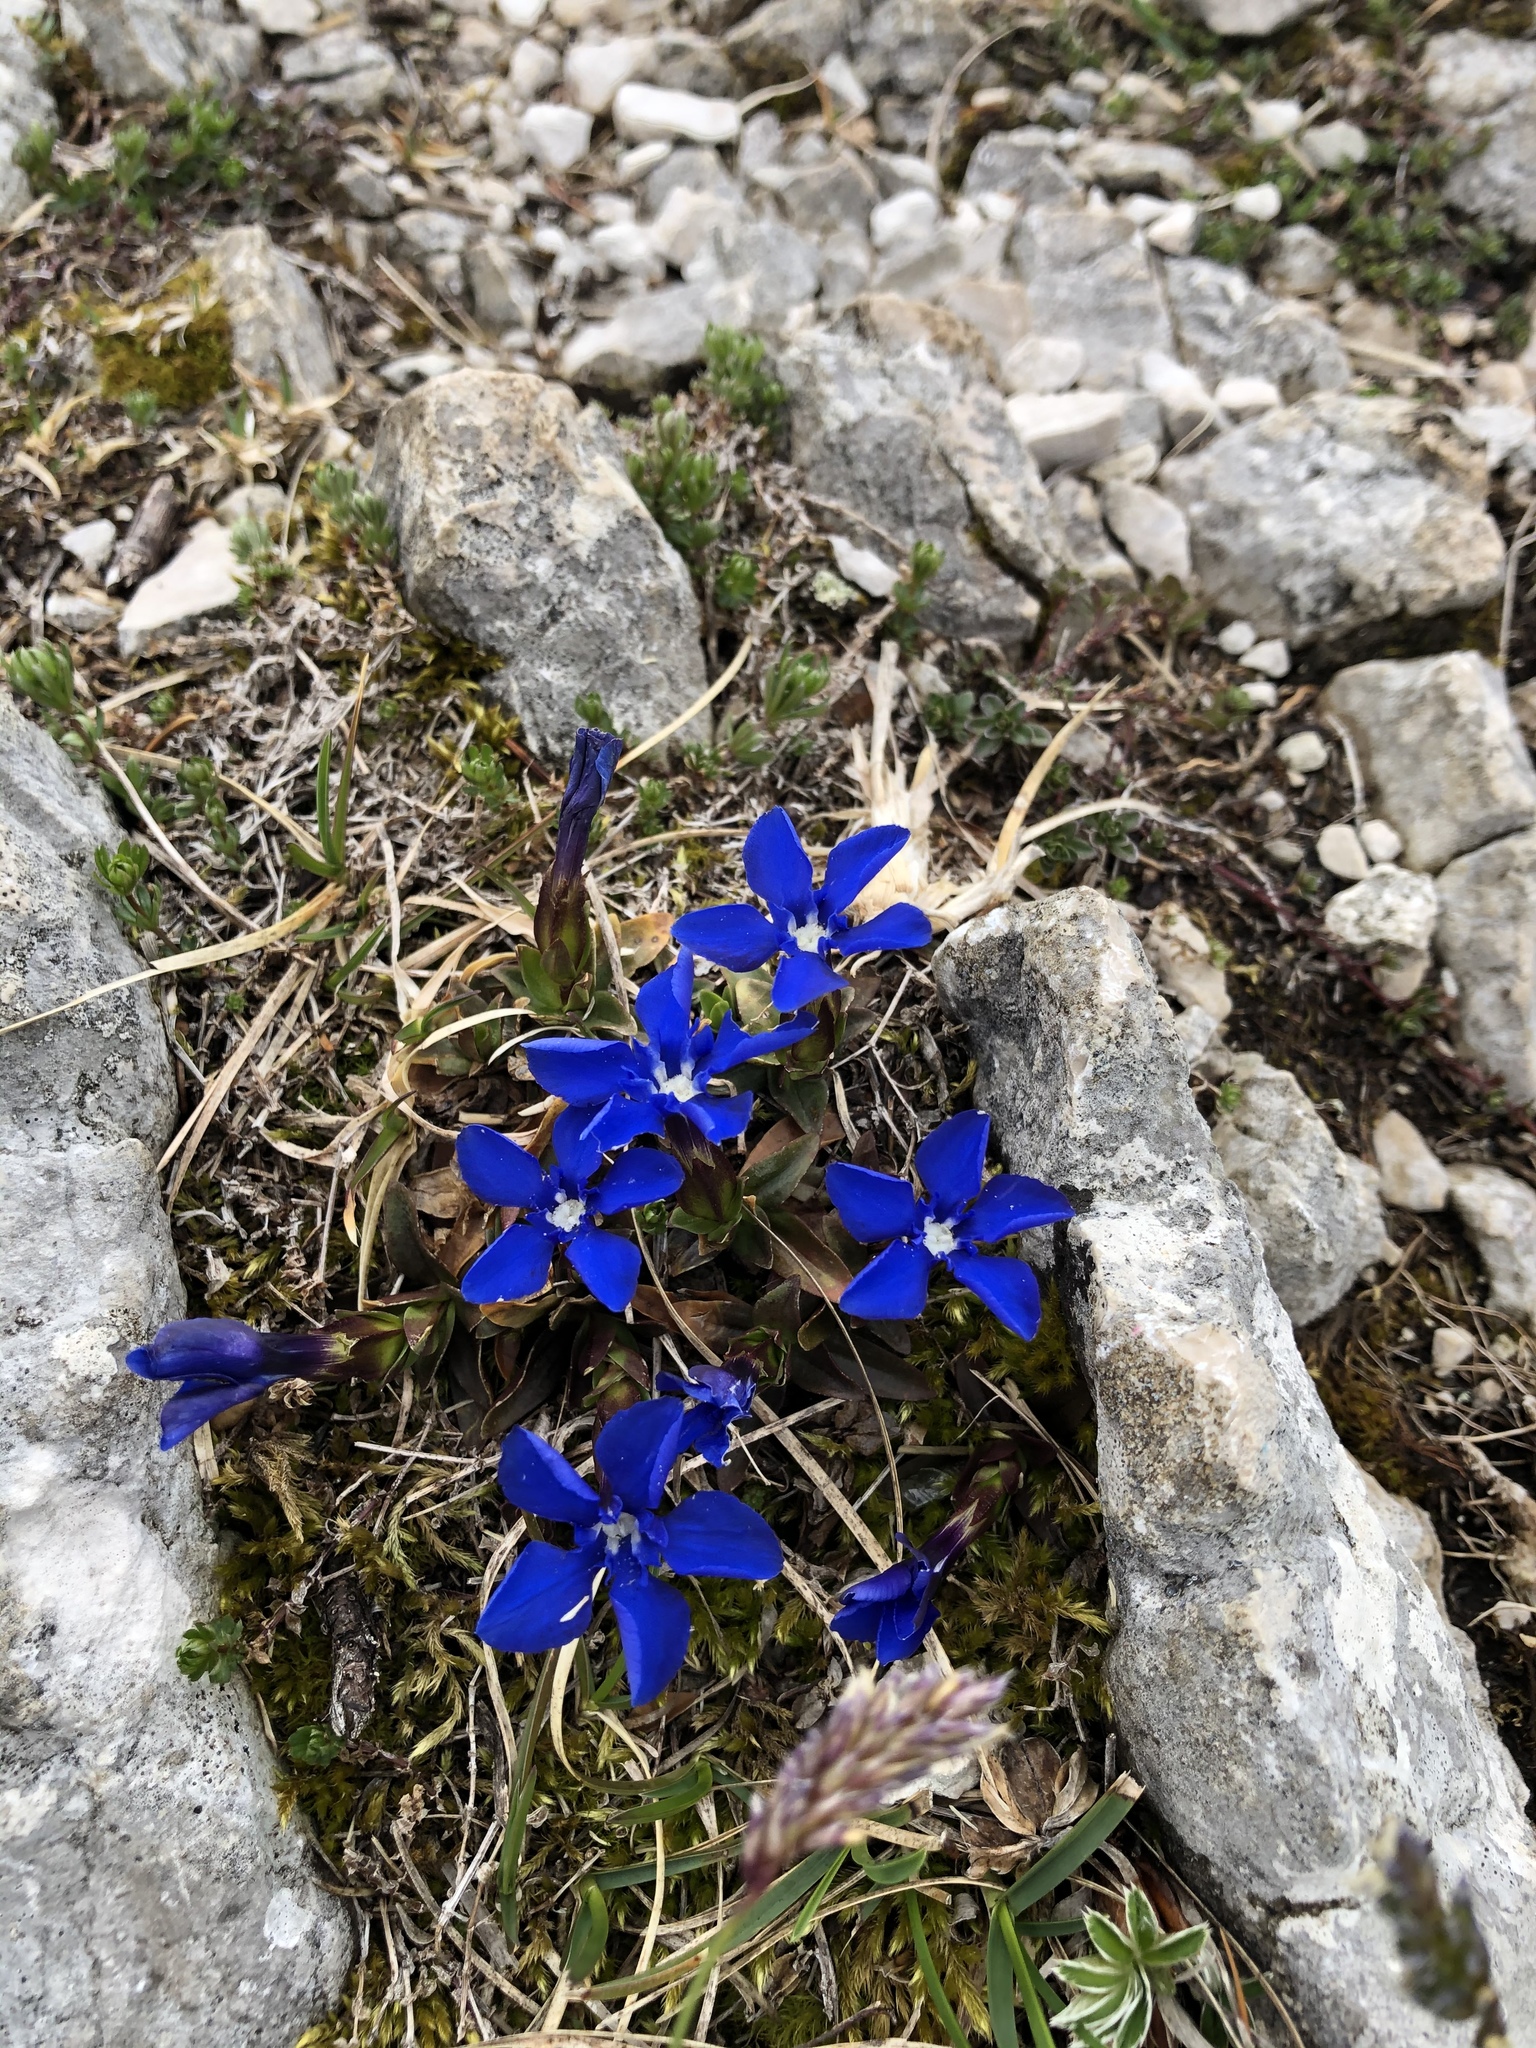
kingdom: Plantae
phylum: Tracheophyta
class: Magnoliopsida
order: Gentianales
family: Gentianaceae
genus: Gentiana
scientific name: Gentiana verna
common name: Spring gentian
